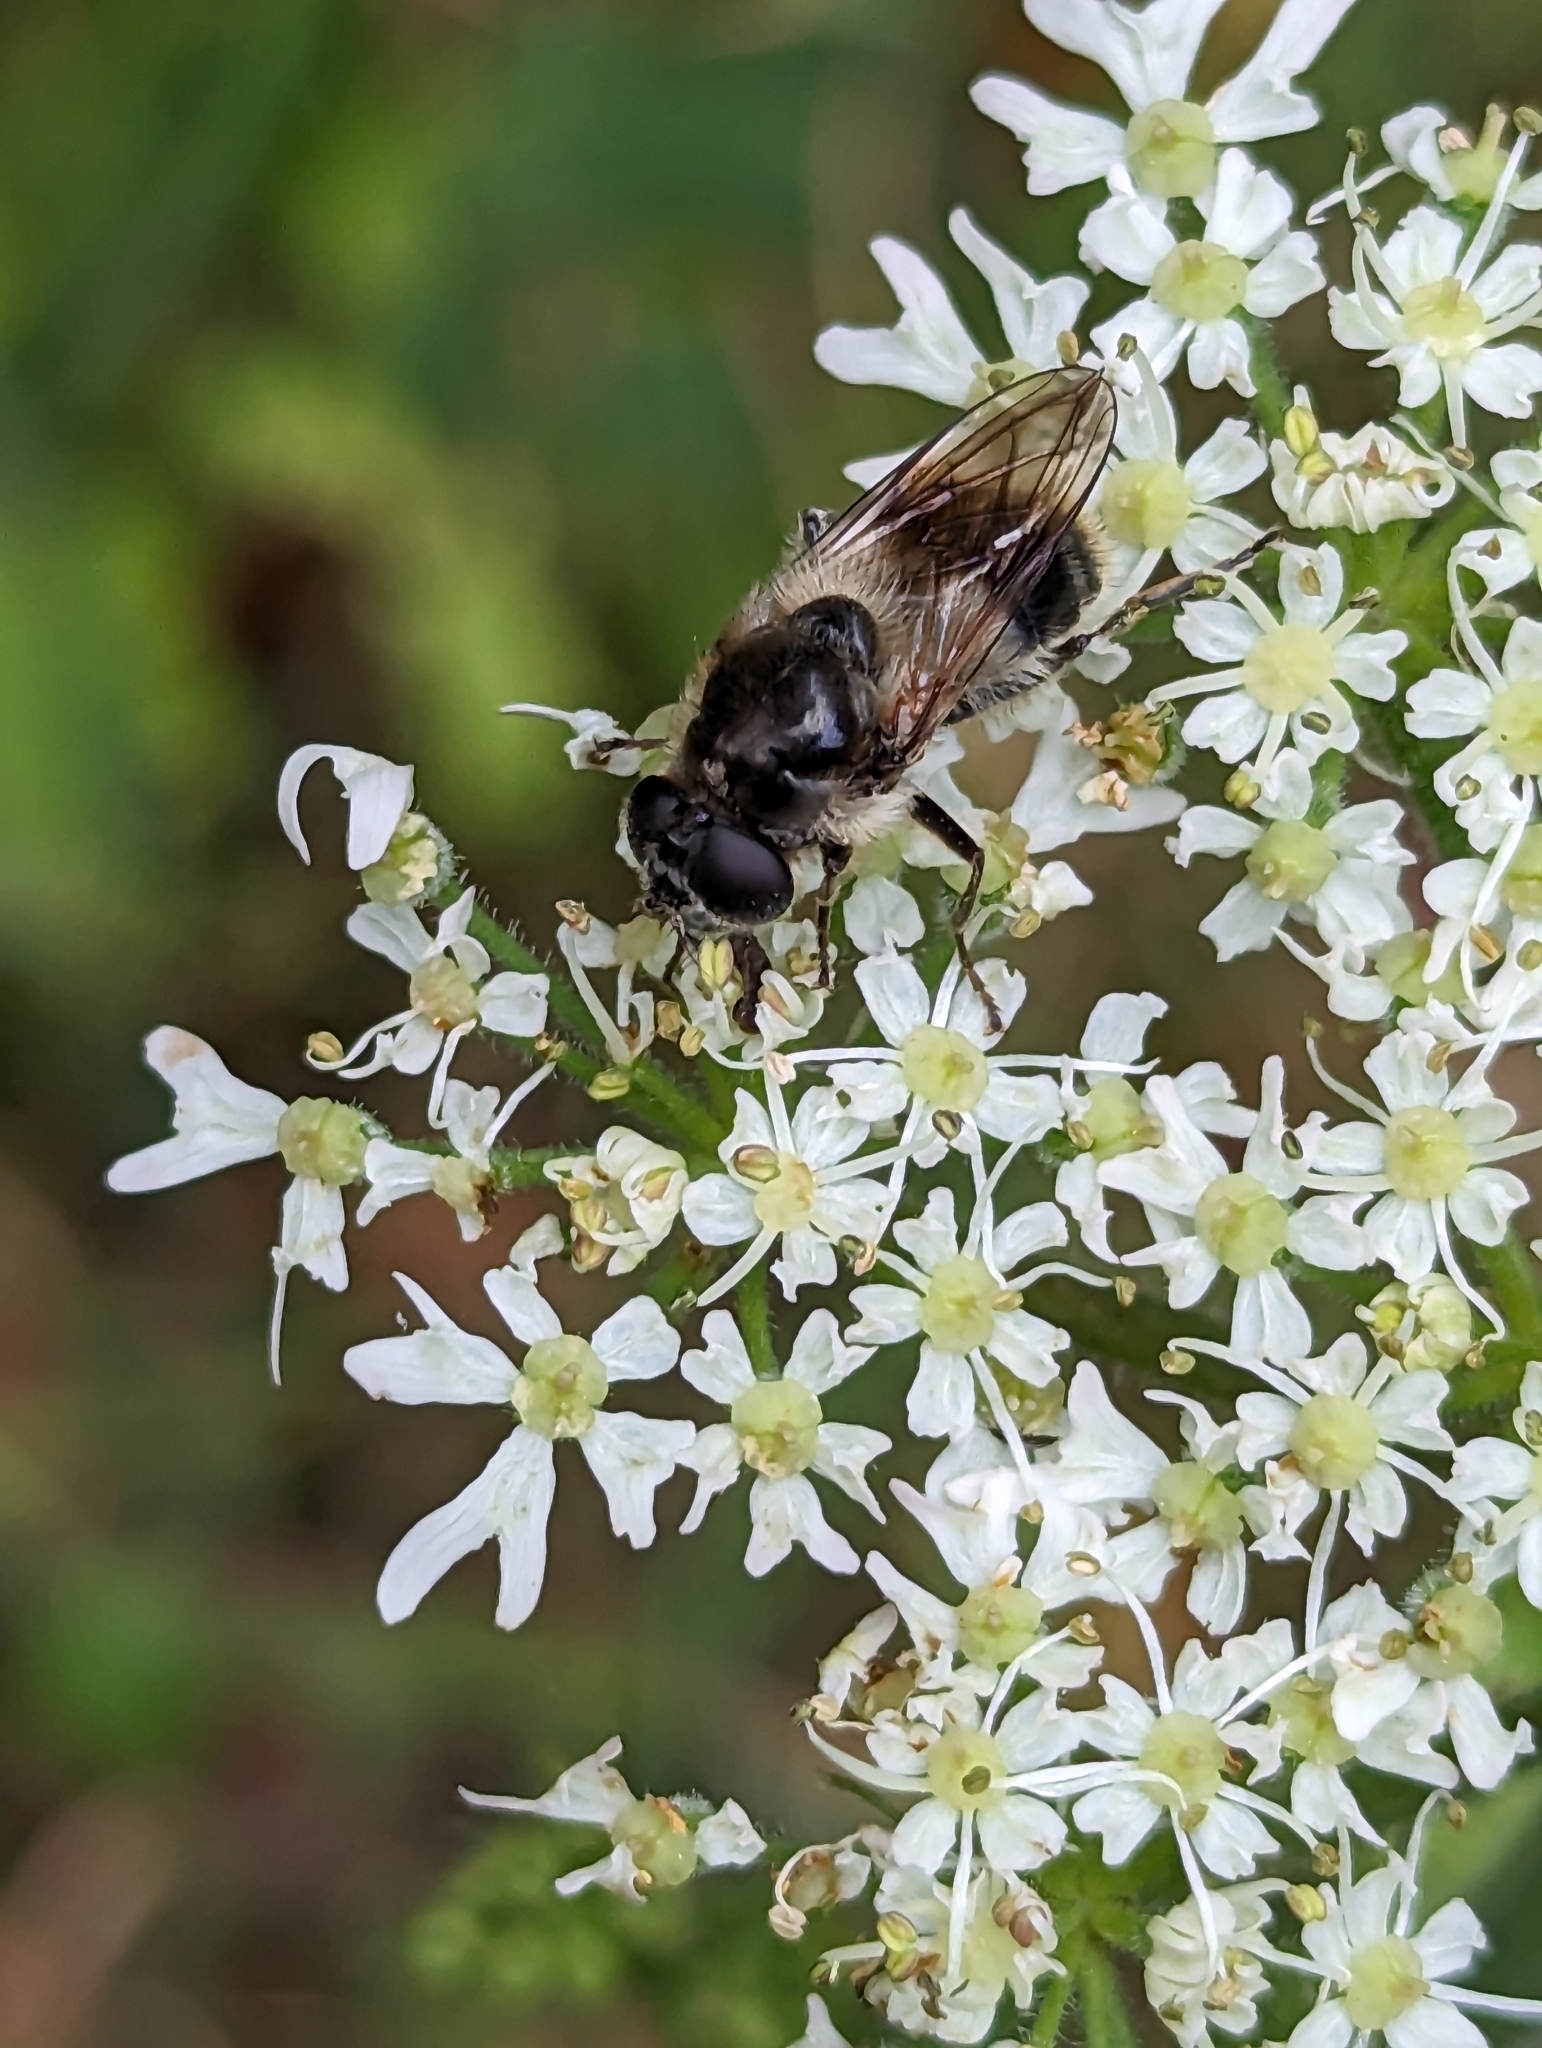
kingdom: Animalia
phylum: Arthropoda
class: Insecta
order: Diptera
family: Syrphidae
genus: Cheilosia
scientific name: Cheilosia illustrata
